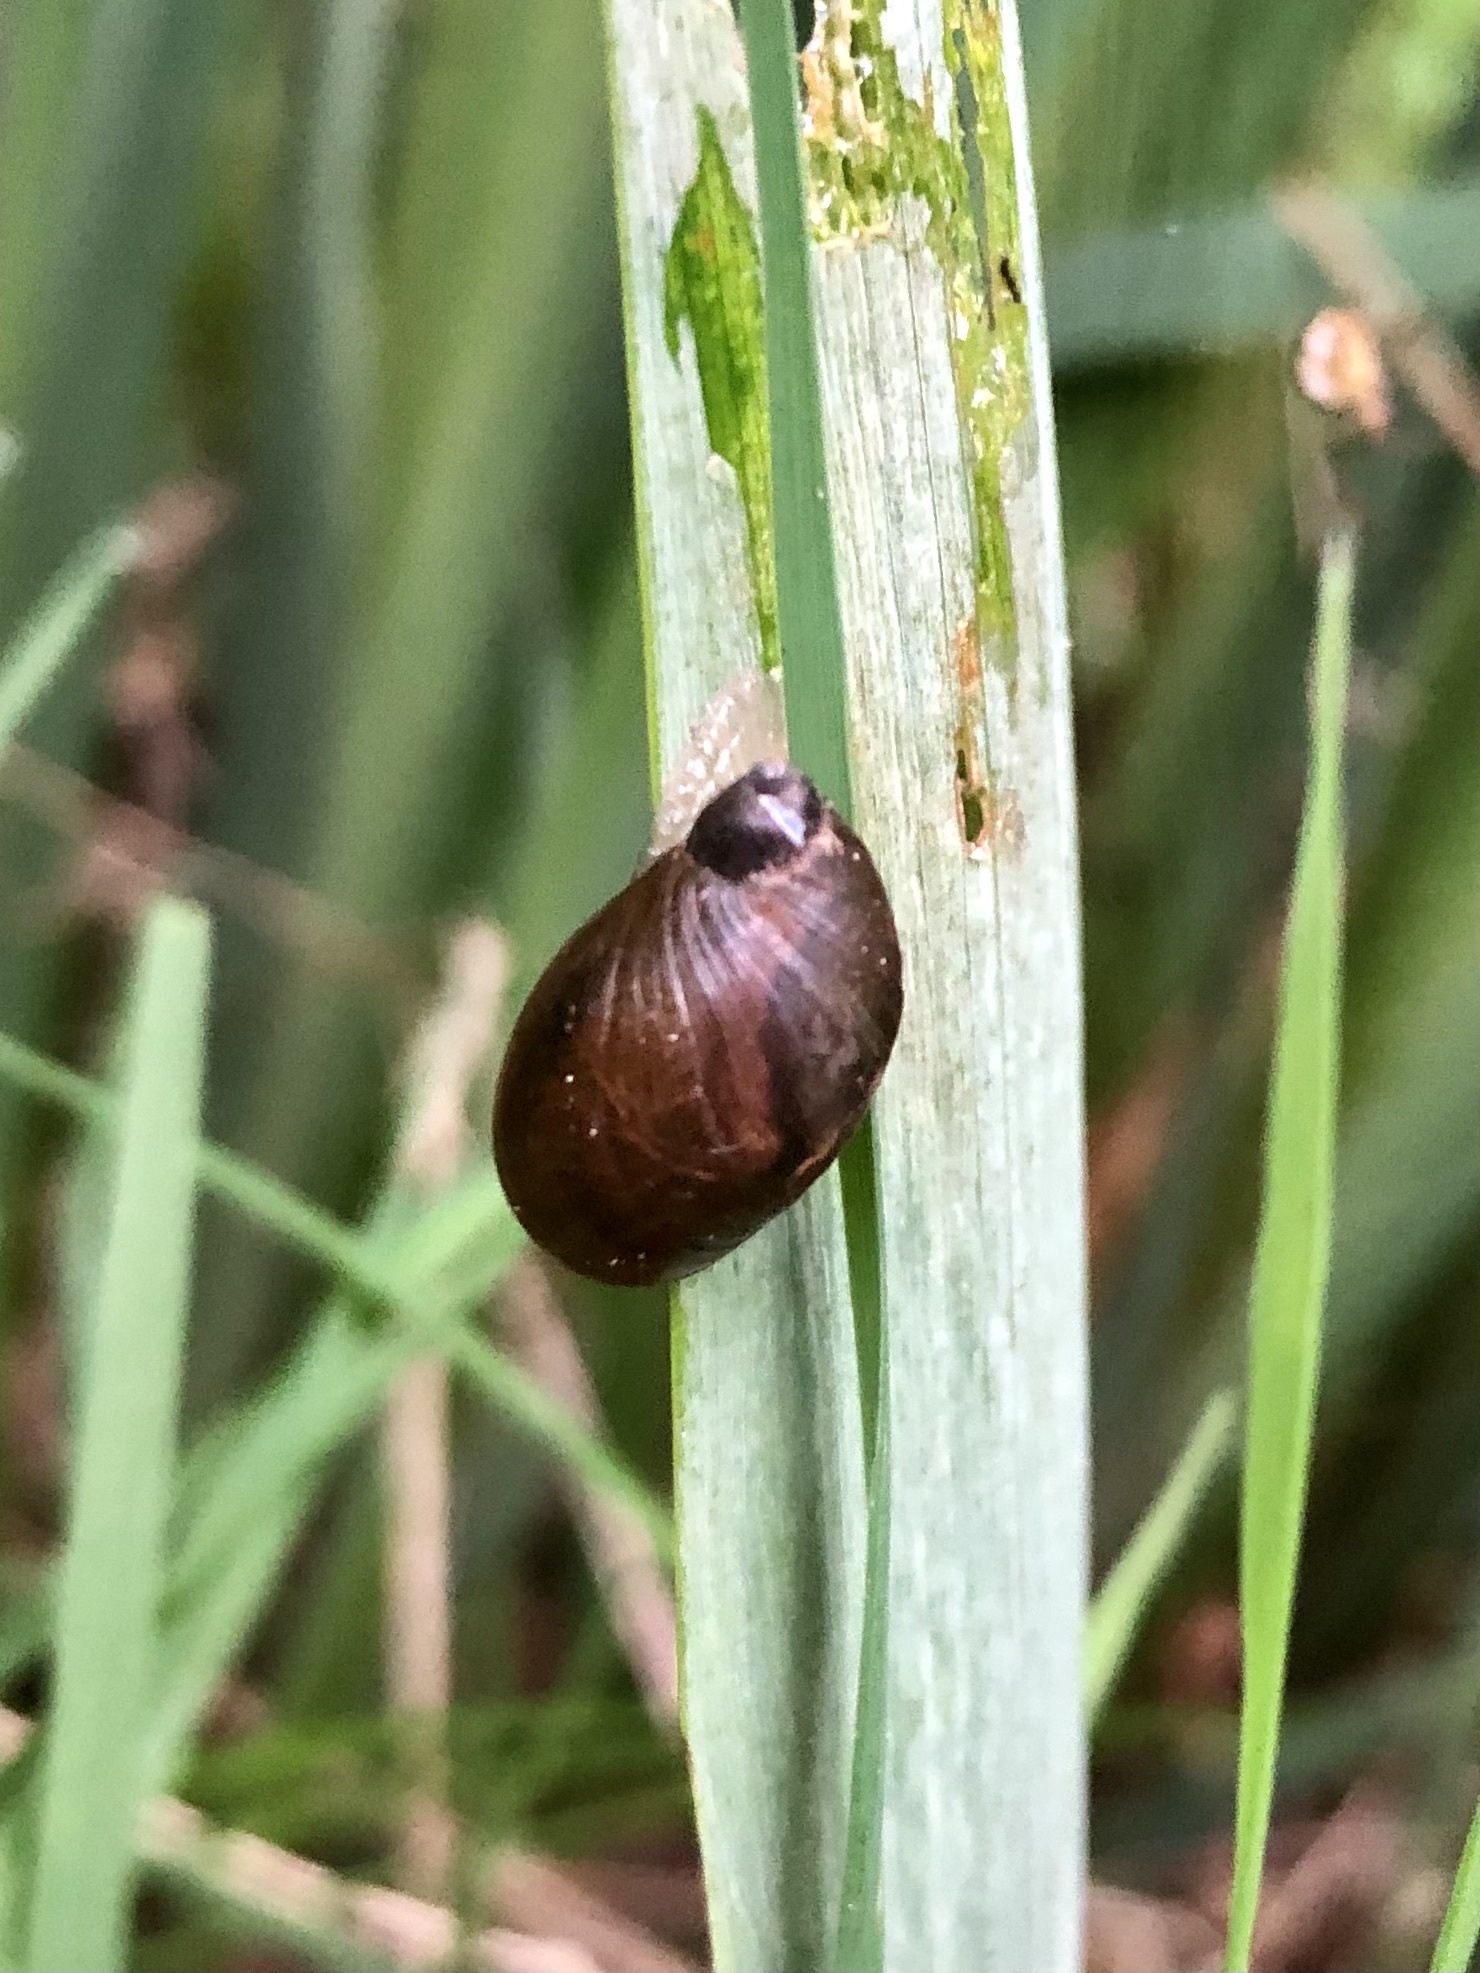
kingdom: Animalia
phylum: Mollusca
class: Gastropoda
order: Stylommatophora
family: Succineidae
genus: Succinea
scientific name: Succinea putris
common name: European ambersnail
